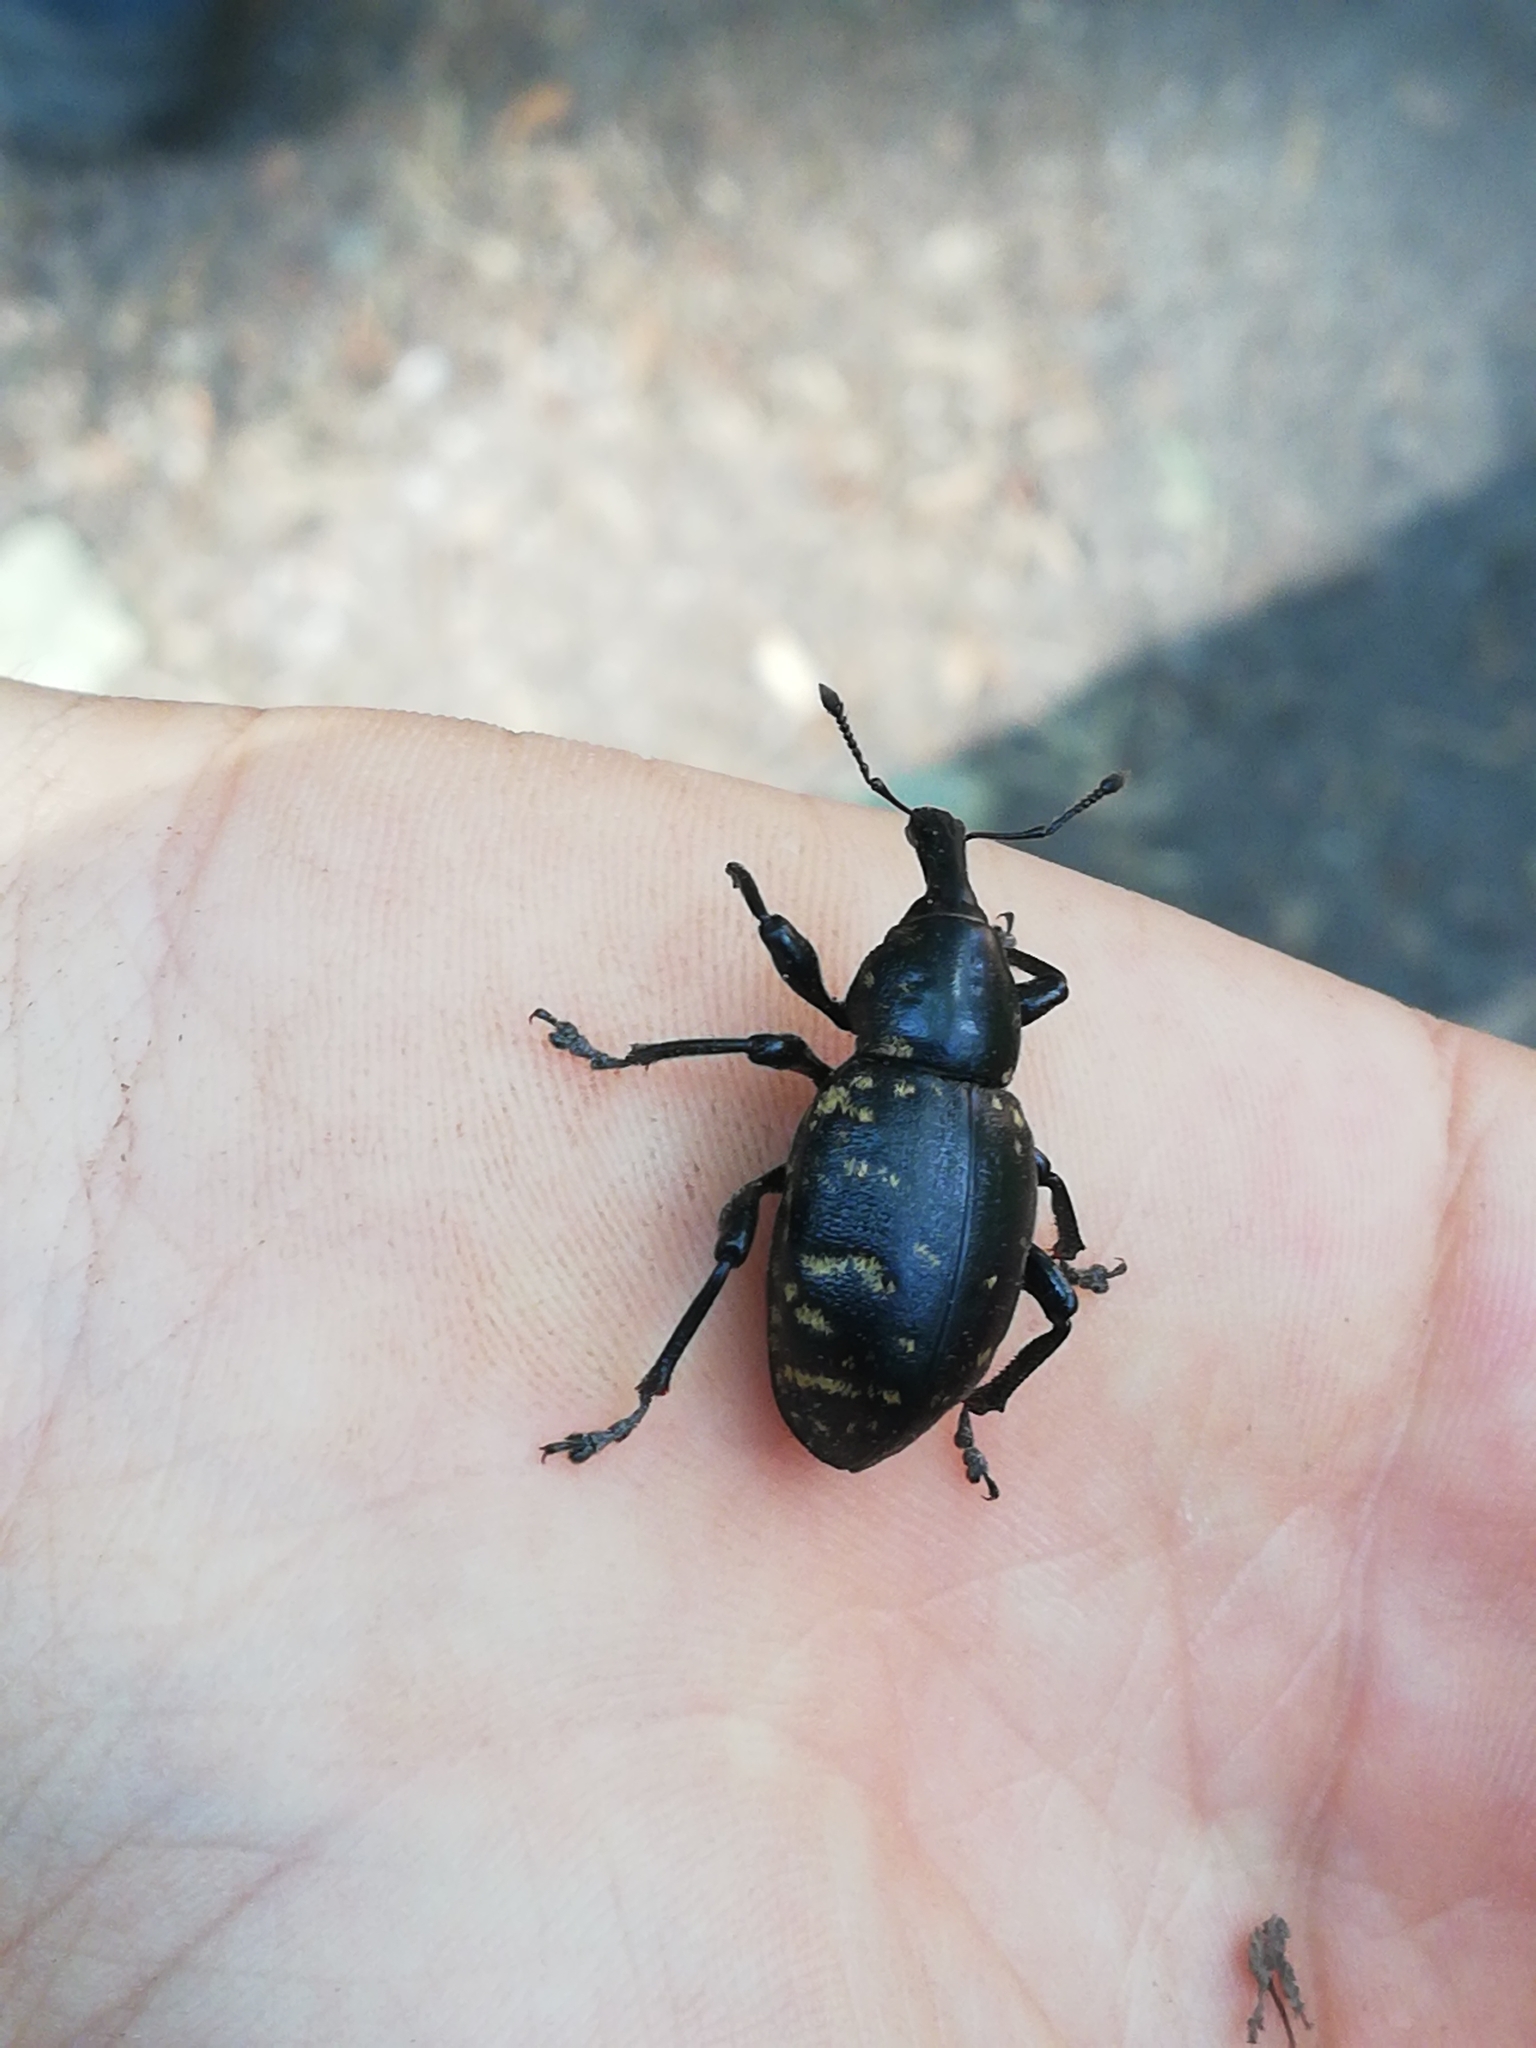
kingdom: Animalia
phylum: Arthropoda
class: Insecta
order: Coleoptera
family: Curculionidae
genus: Liparus
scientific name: Liparus germanus
